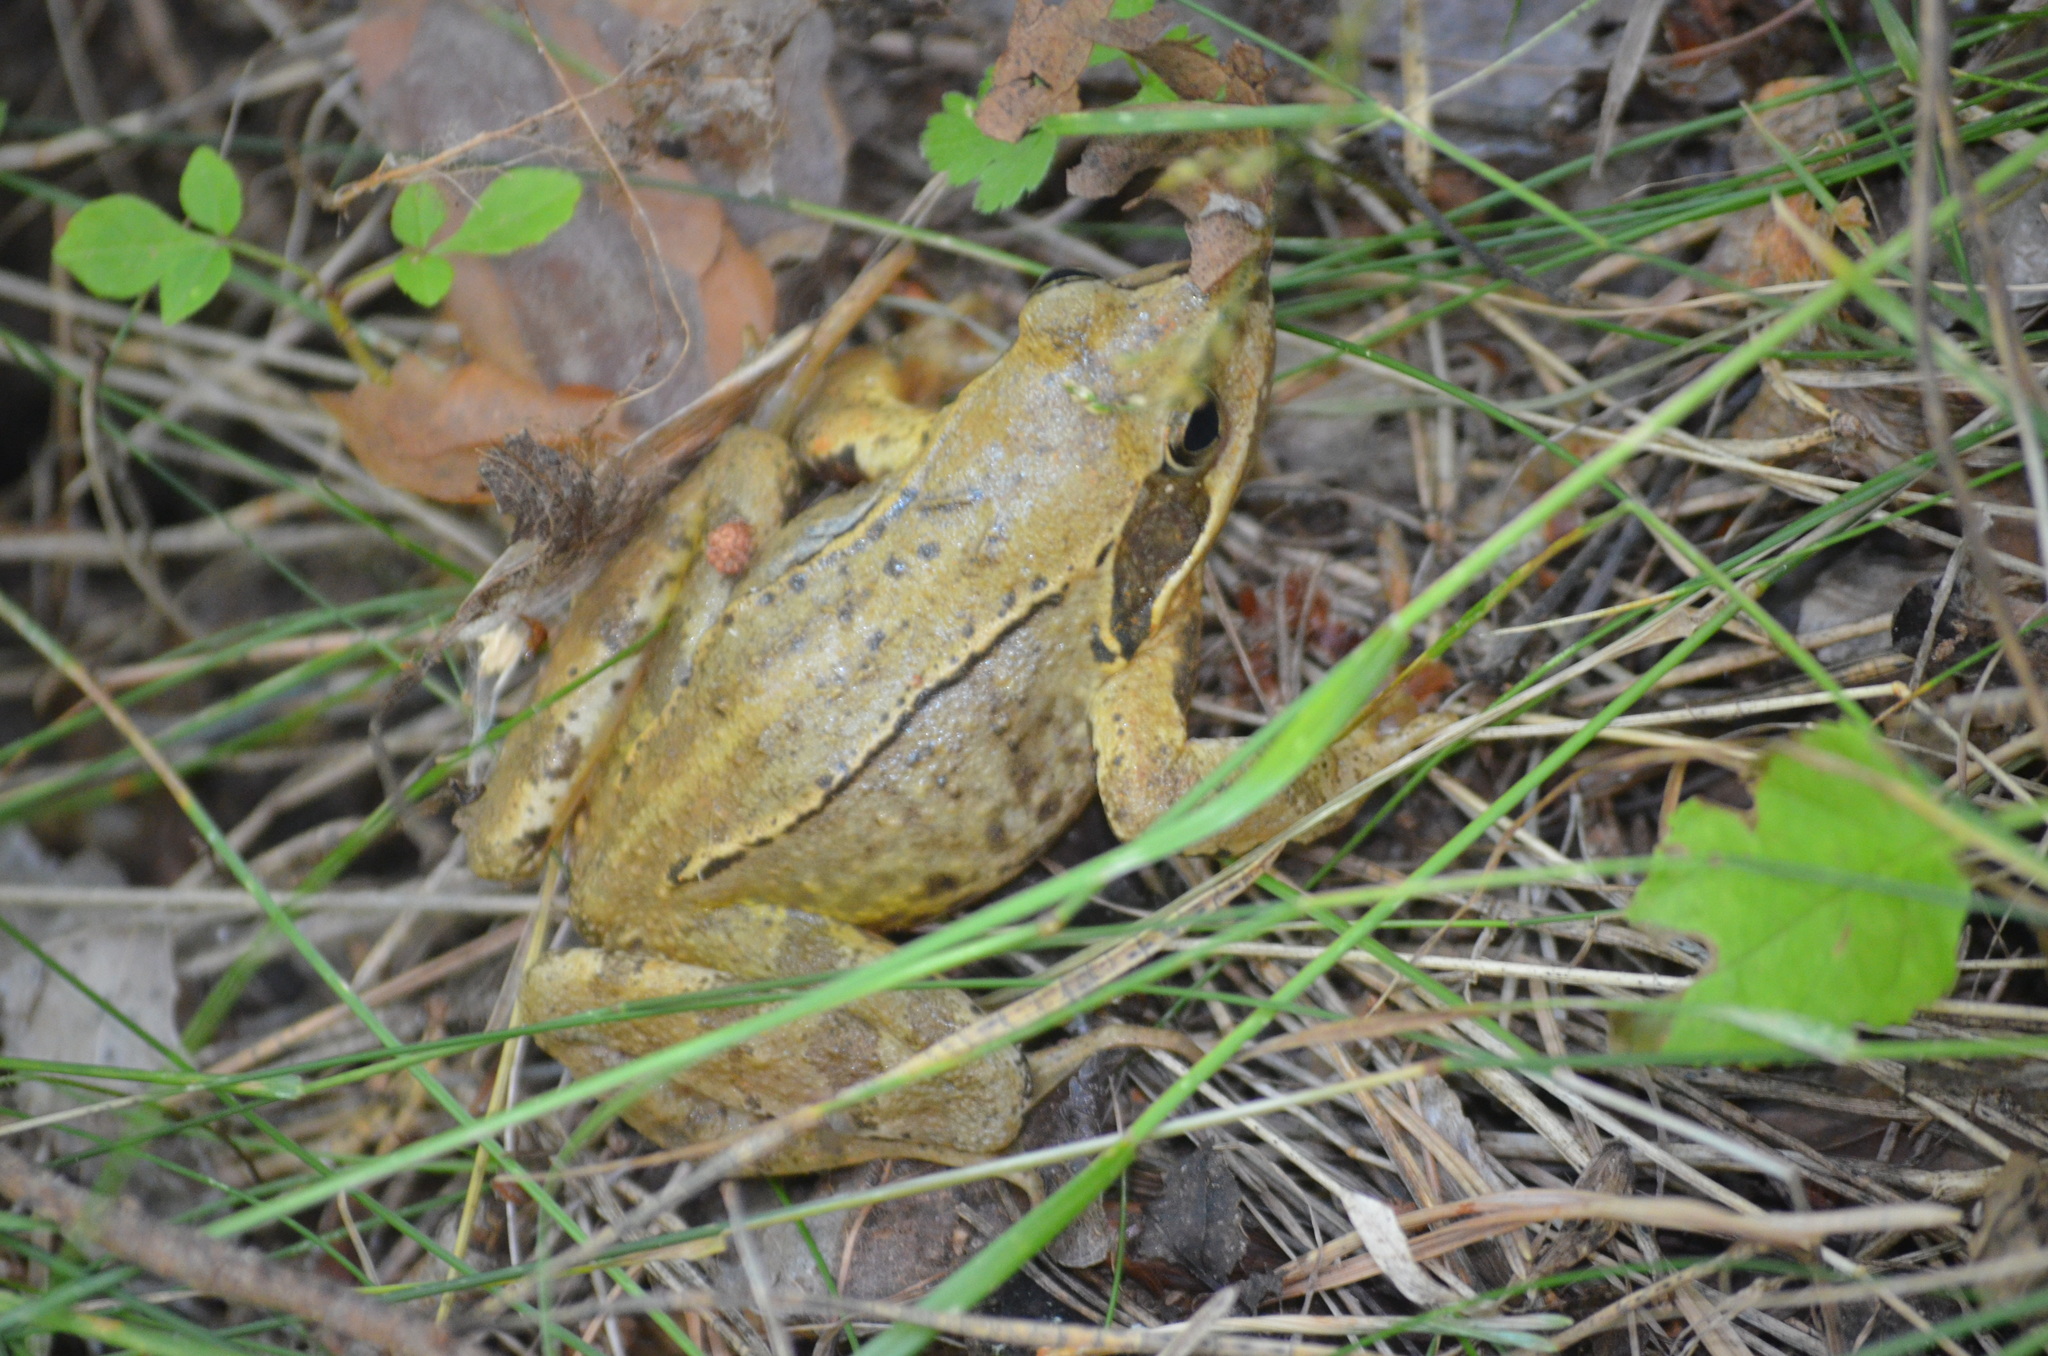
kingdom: Animalia
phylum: Chordata
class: Amphibia
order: Anura
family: Ranidae
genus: Rana
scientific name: Rana temporaria
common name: Common frog
